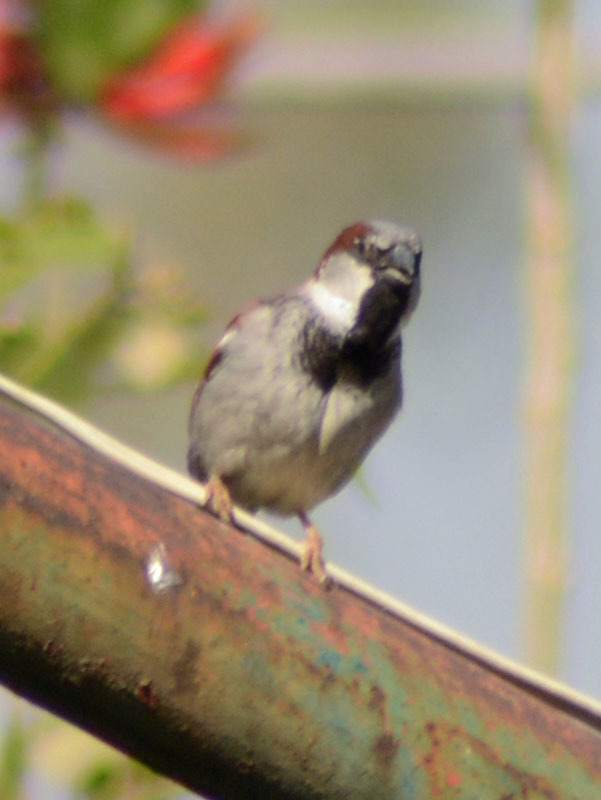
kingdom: Animalia
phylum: Chordata
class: Aves
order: Passeriformes
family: Passeridae
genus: Passer
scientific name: Passer domesticus
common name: House sparrow
